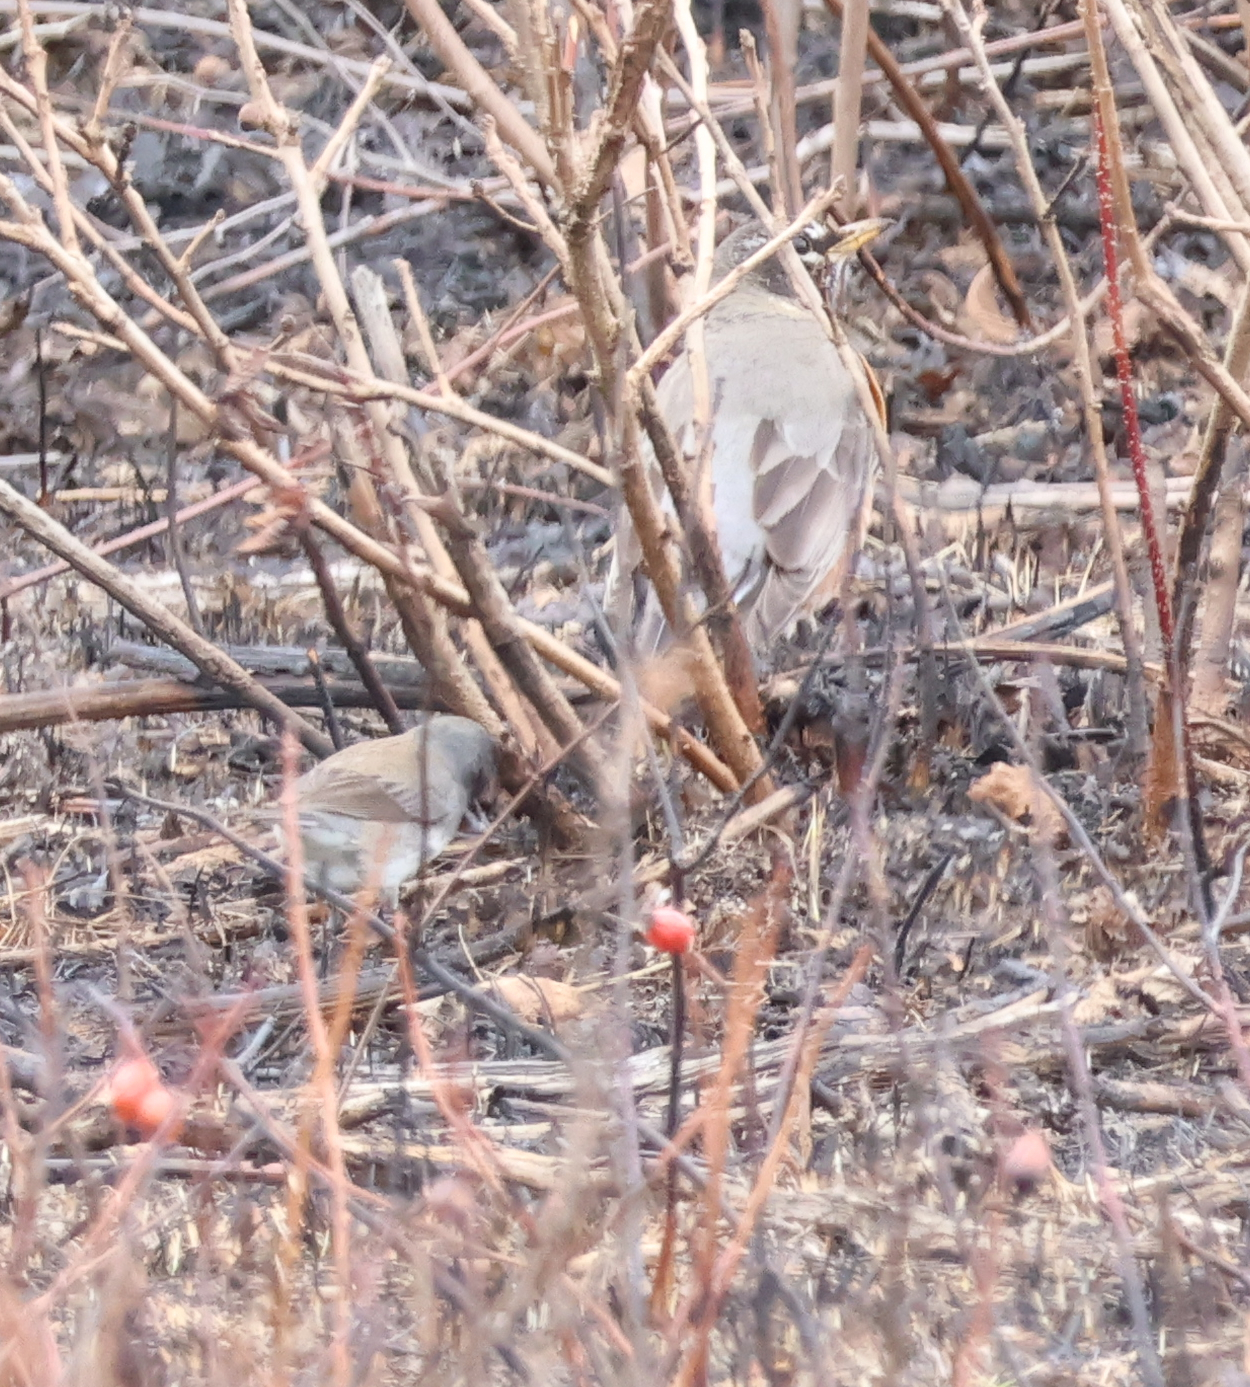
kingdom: Animalia
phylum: Chordata
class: Aves
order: Passeriformes
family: Turdidae
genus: Turdus
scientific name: Turdus migratorius
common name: American robin
